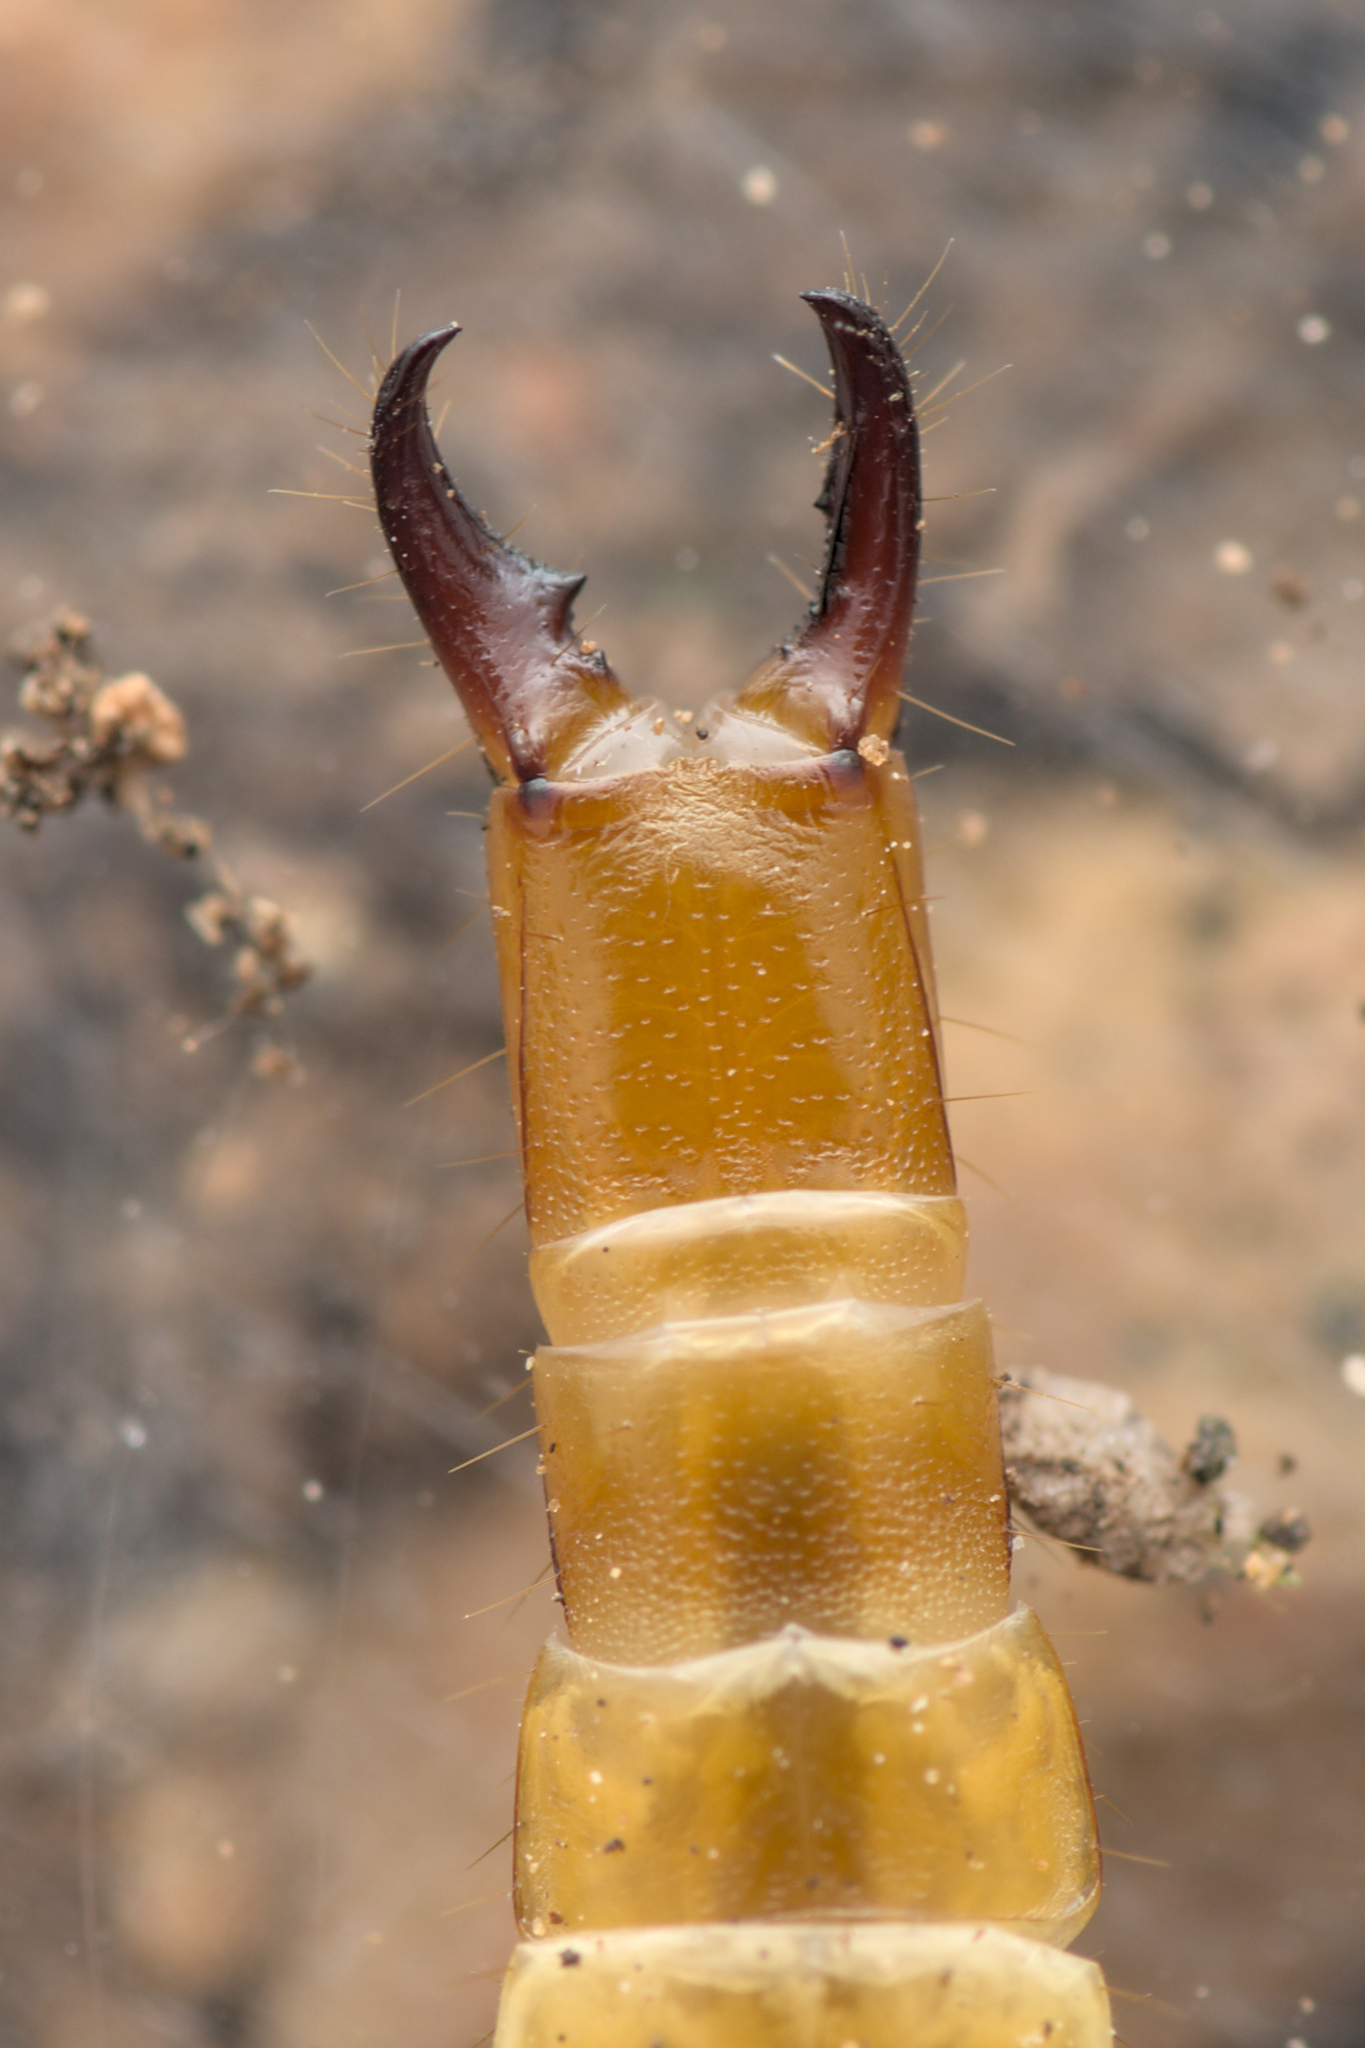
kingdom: Animalia
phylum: Arthropoda
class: Diplura
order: Diplura
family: Japygidae
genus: Dipljapyx
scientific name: Dipljapyx humberti
